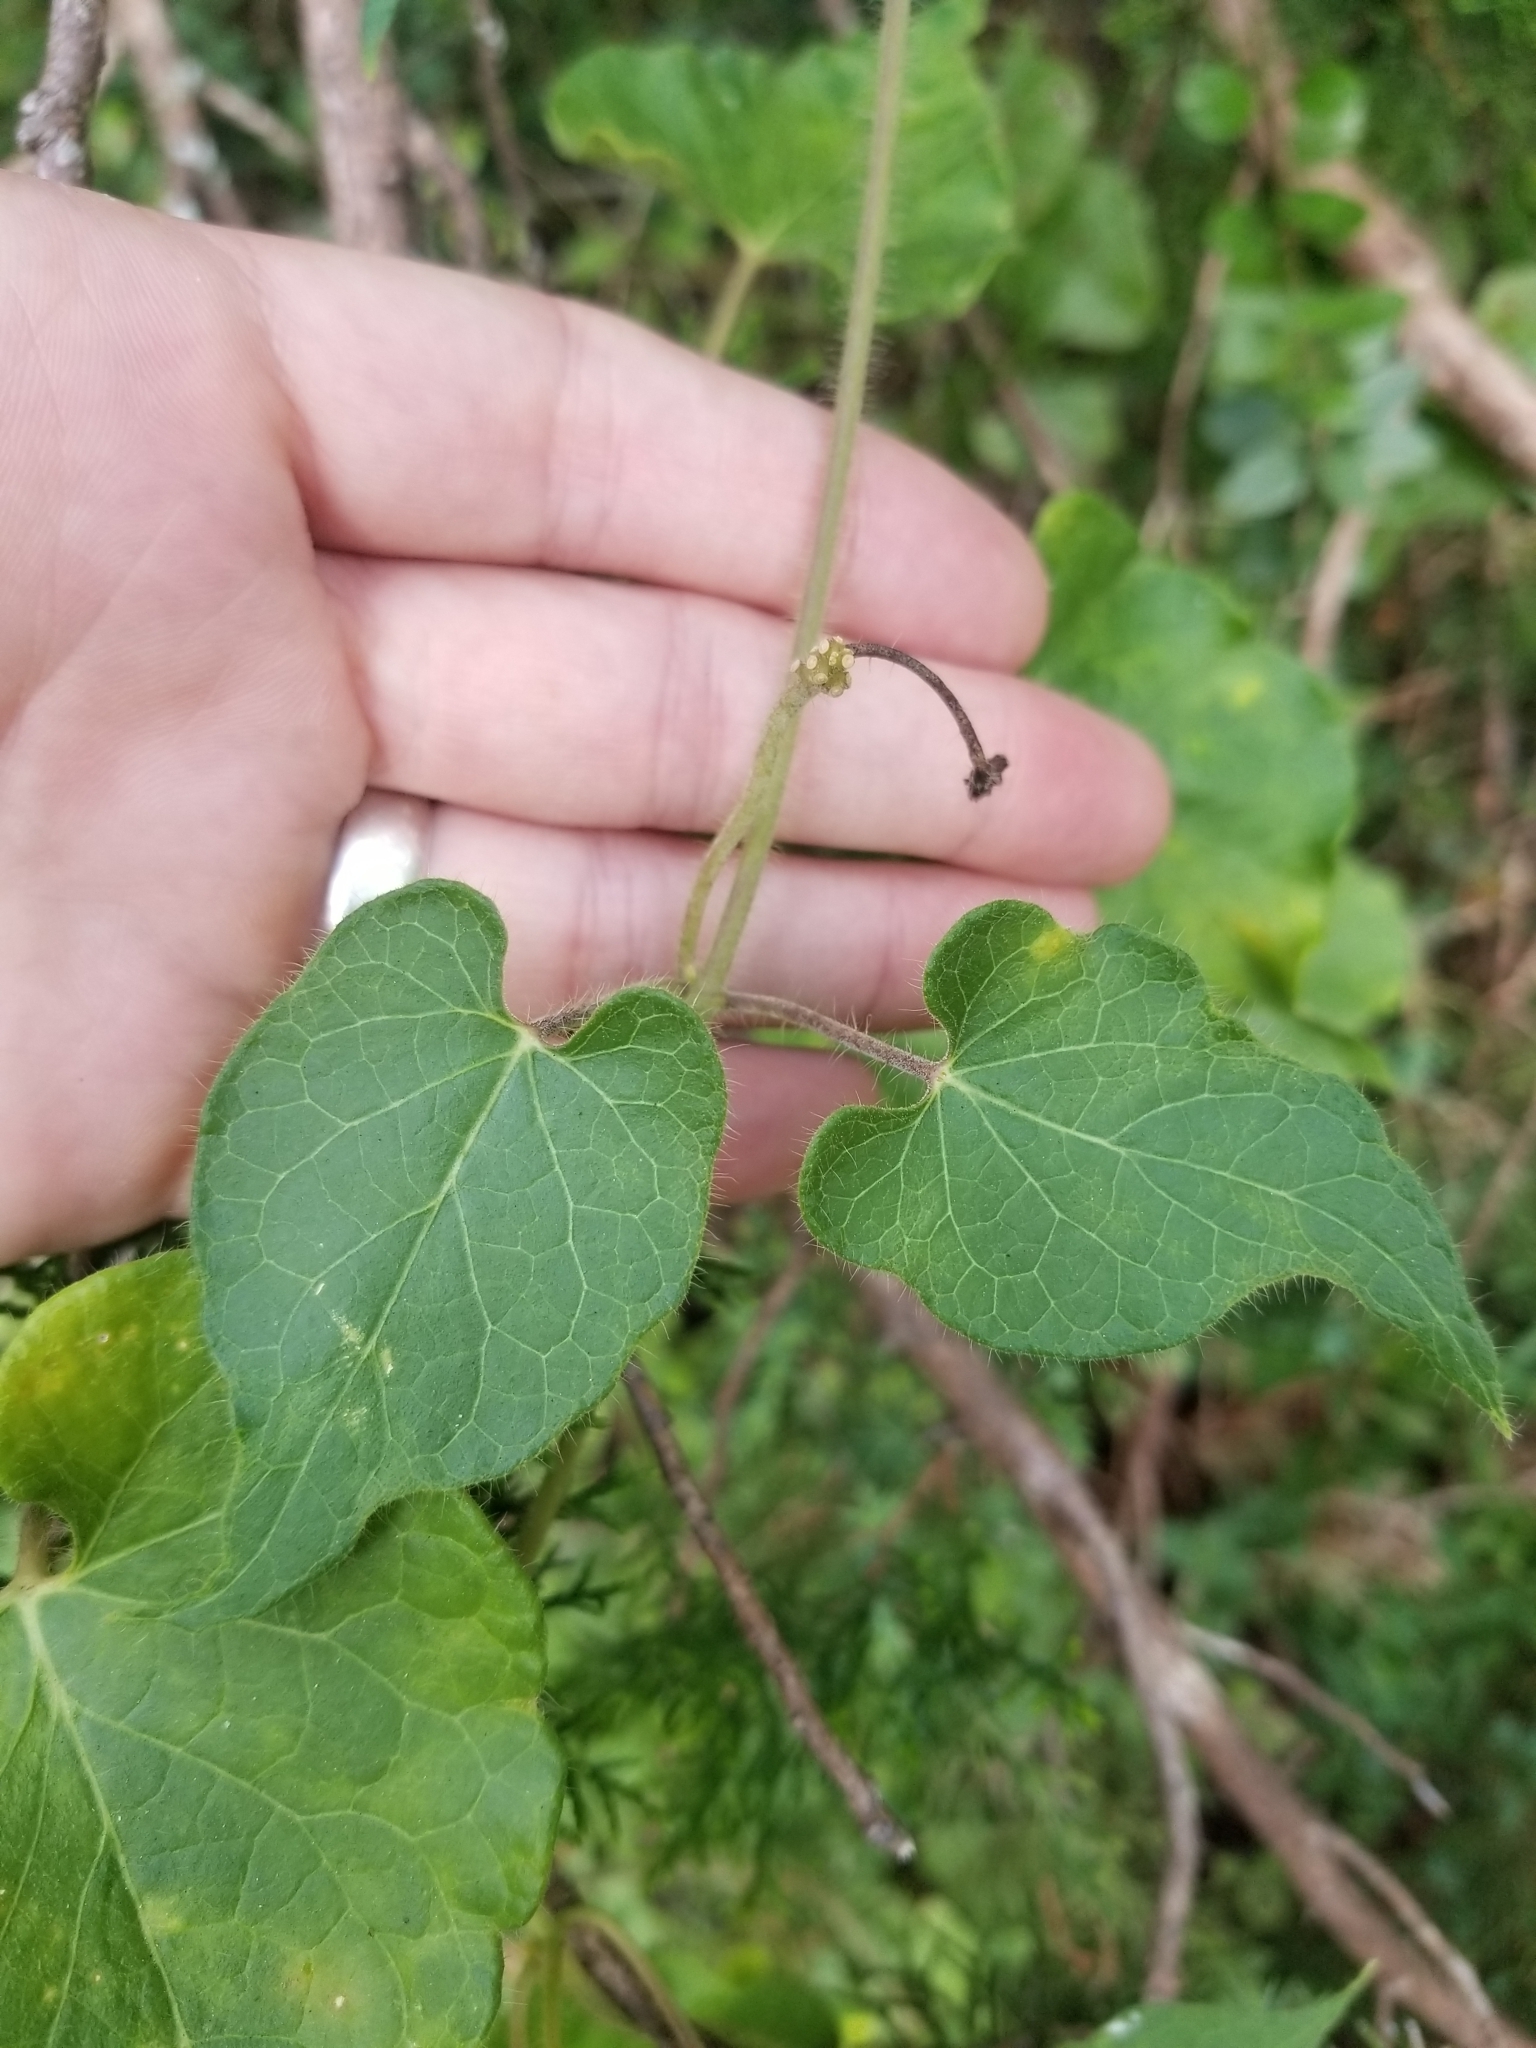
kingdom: Plantae
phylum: Tracheophyta
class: Magnoliopsida
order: Gentianales
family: Apocynaceae
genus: Dictyanthus
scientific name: Dictyanthus reticulatus
